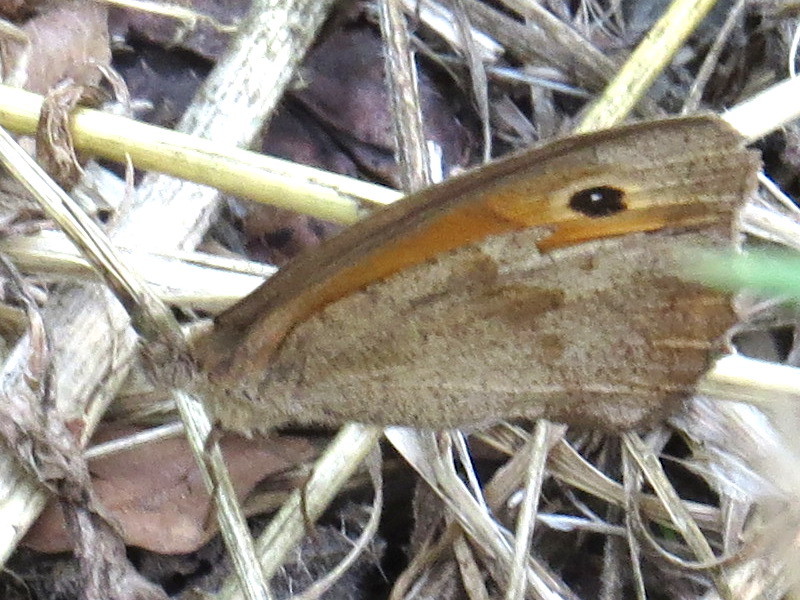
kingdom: Animalia
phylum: Arthropoda
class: Insecta
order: Lepidoptera
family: Nymphalidae
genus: Maniola
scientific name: Maniola jurtina
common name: Meadow brown
